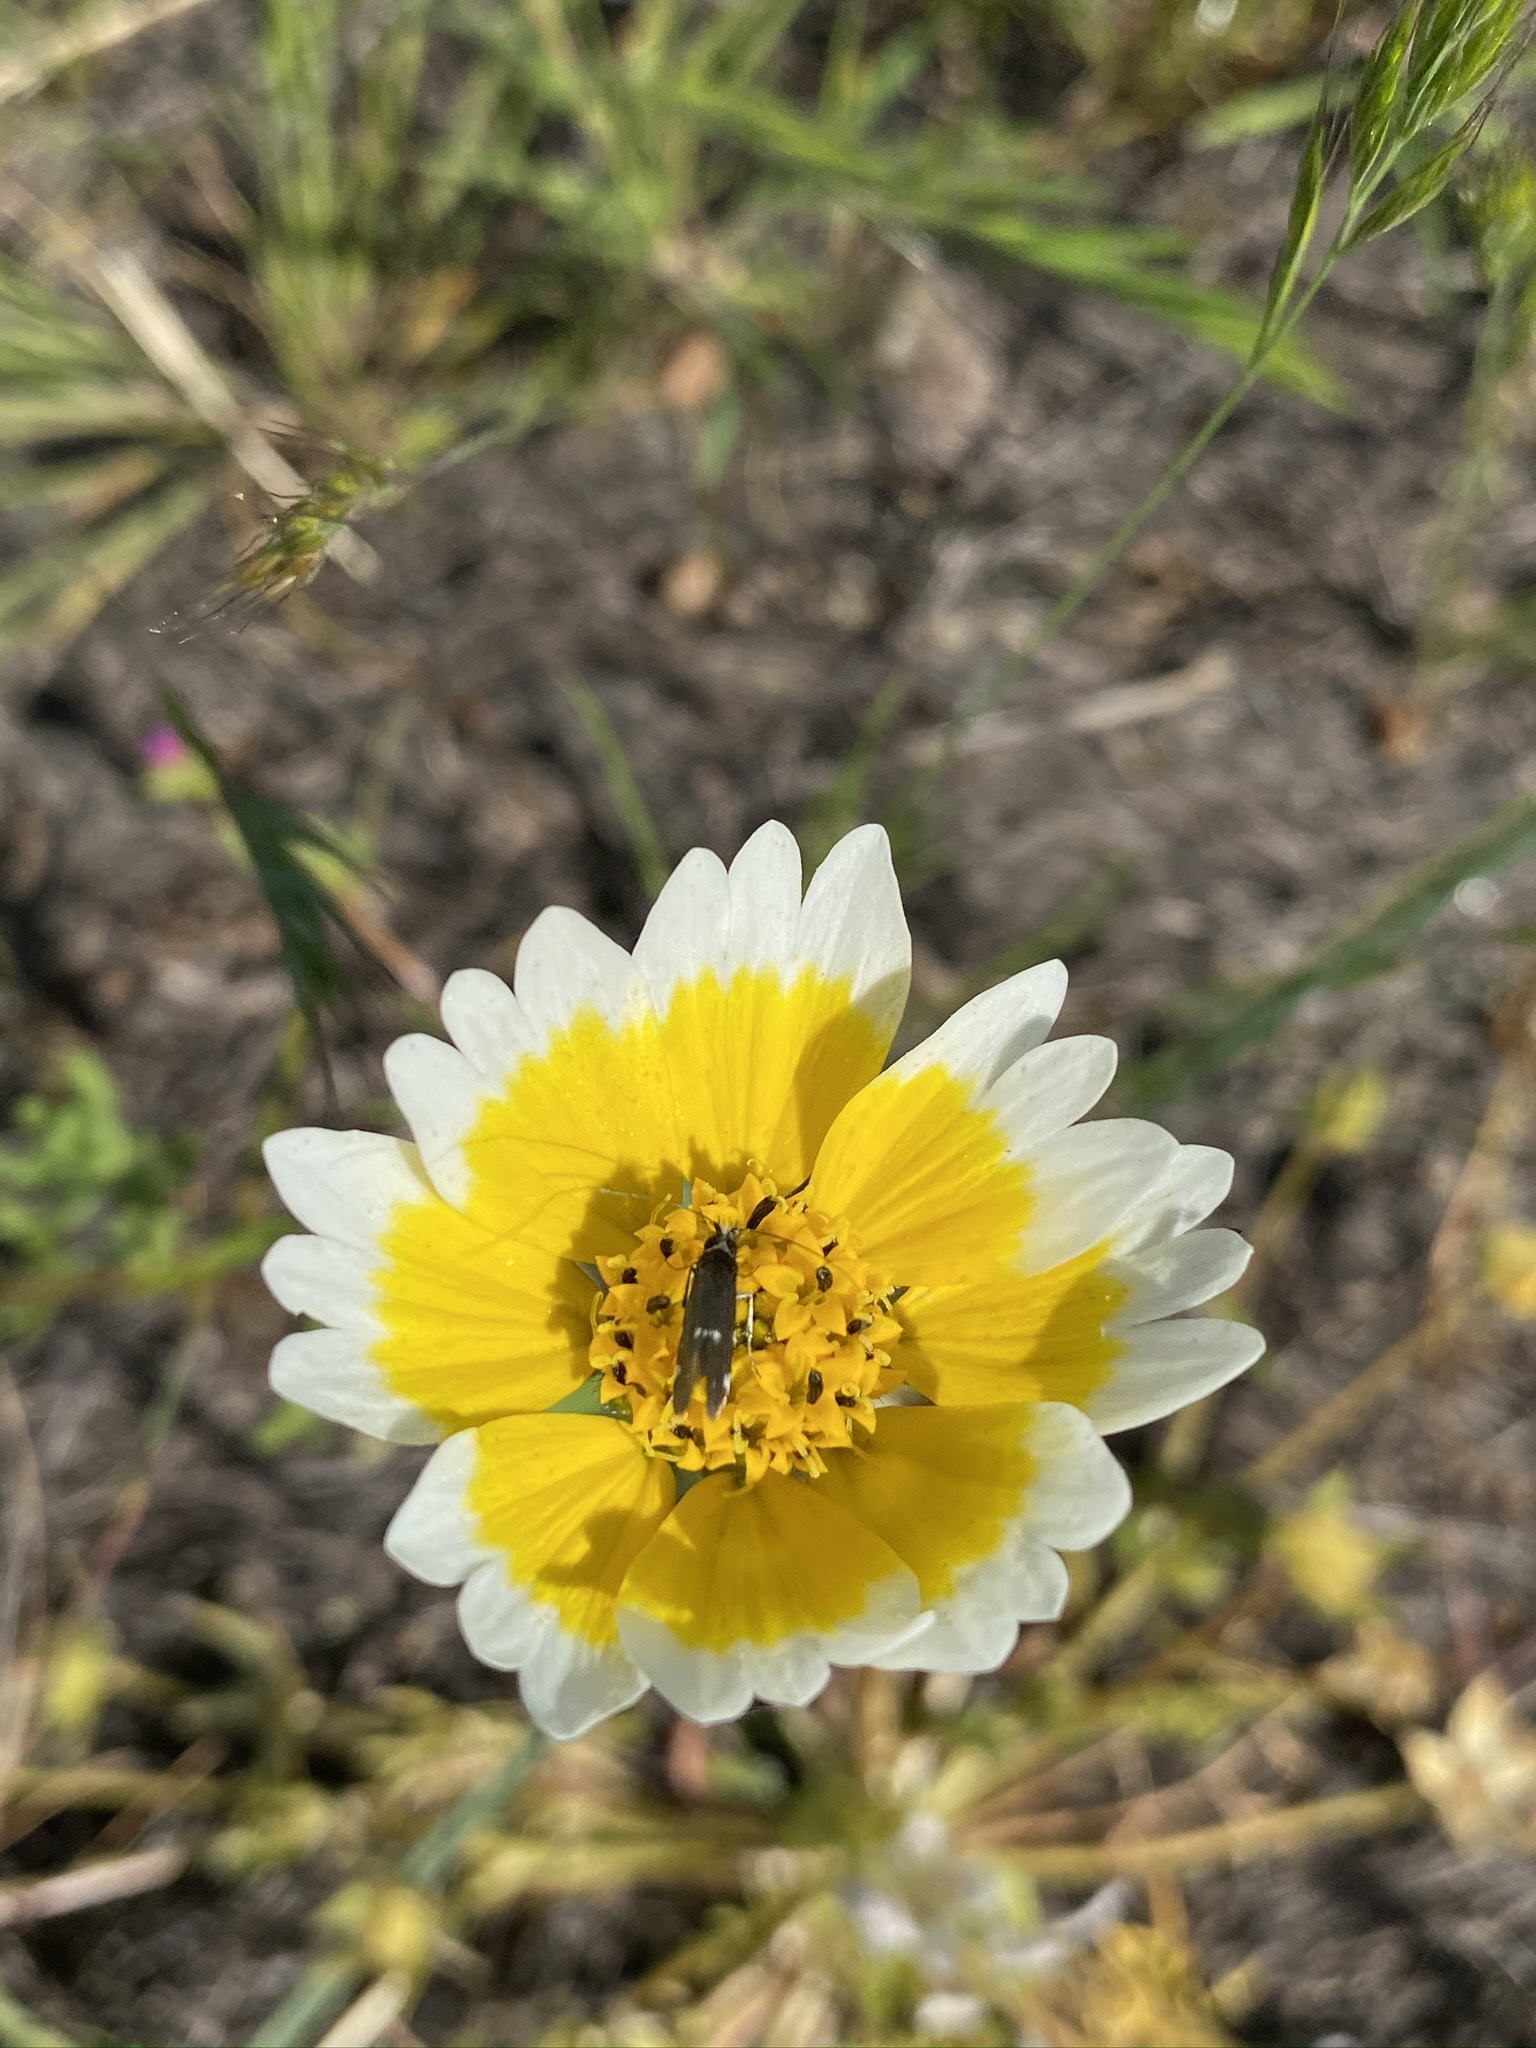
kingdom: Plantae
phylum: Tracheophyta
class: Magnoliopsida
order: Asterales
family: Asteraceae
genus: Layia
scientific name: Layia fremontii
